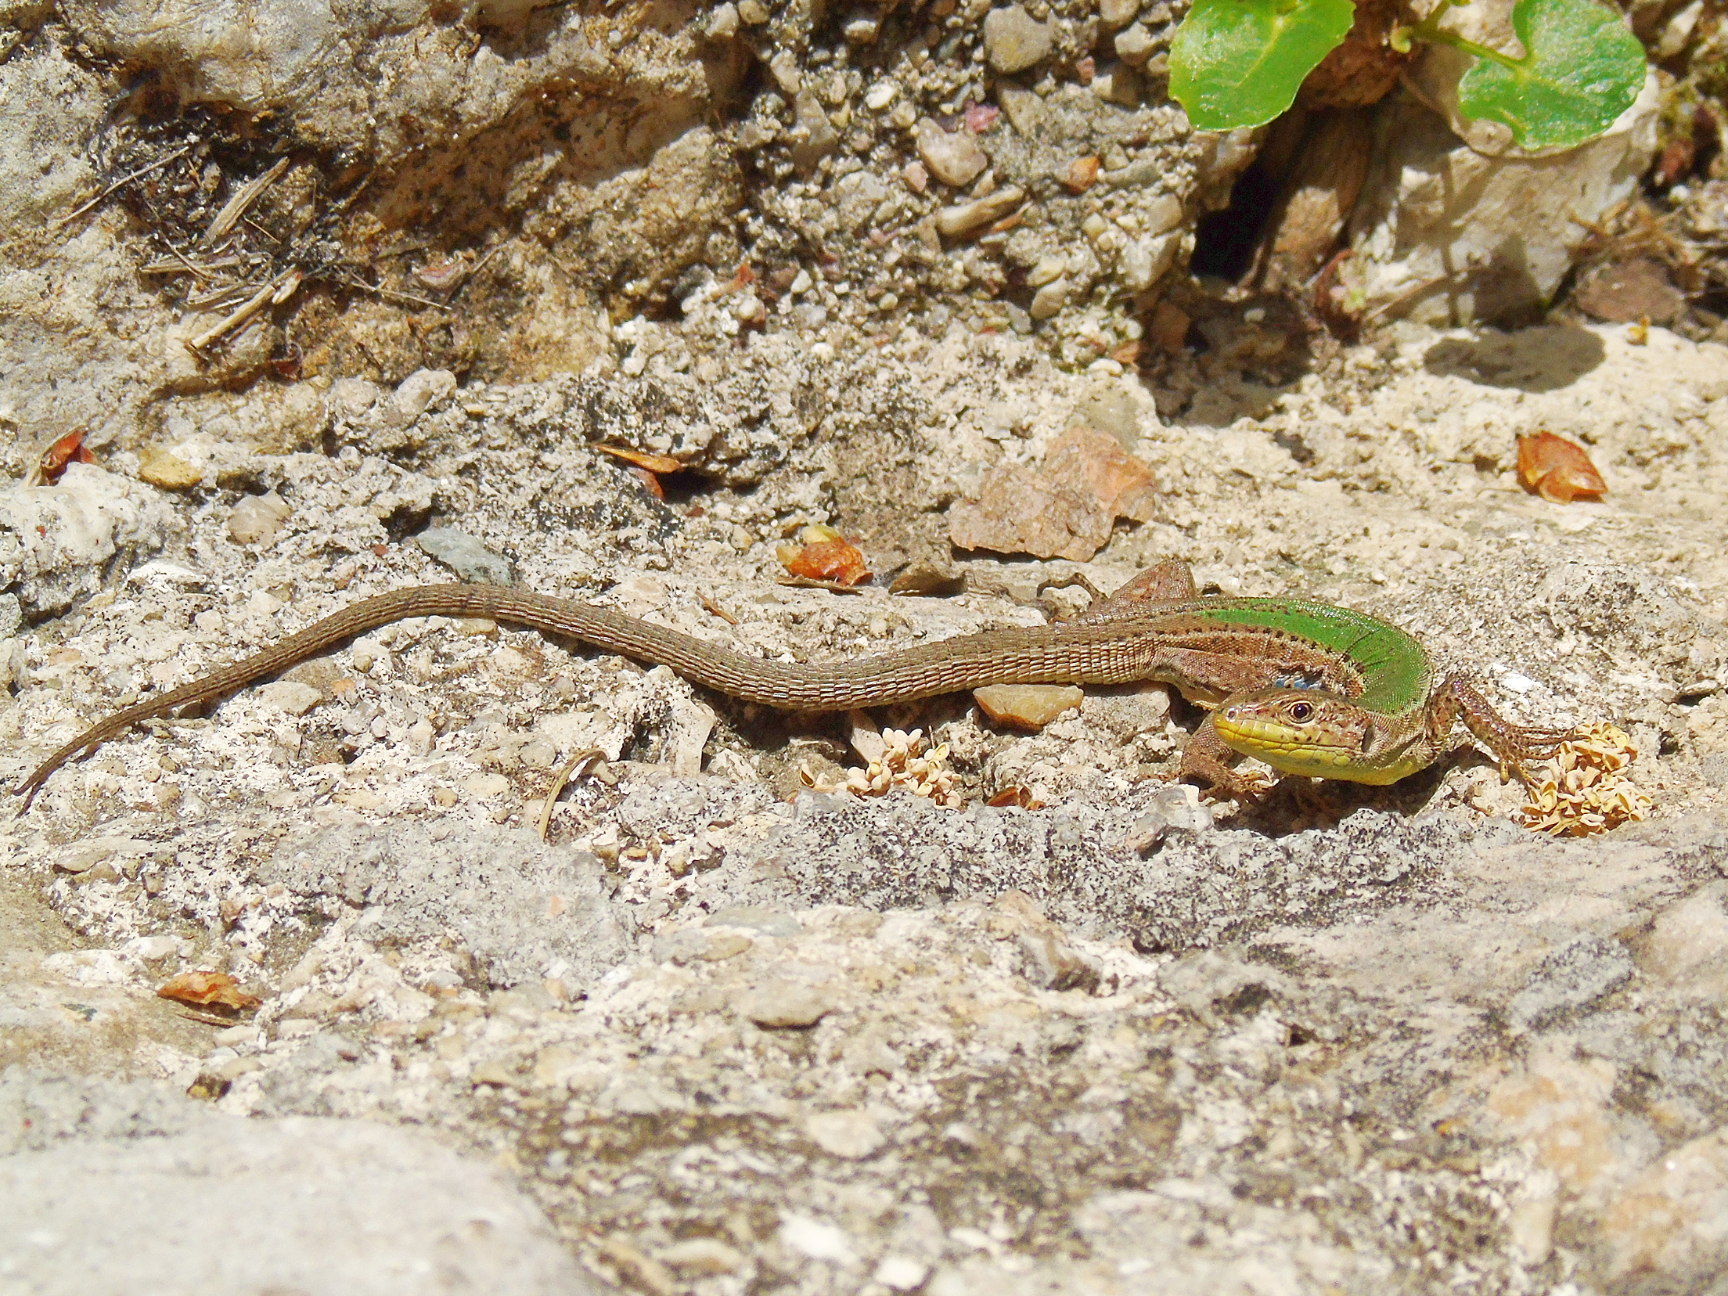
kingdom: Animalia
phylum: Chordata
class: Squamata
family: Lacertidae
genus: Podarcis
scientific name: Podarcis melisellensis
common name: Dalmatian wall lizard
